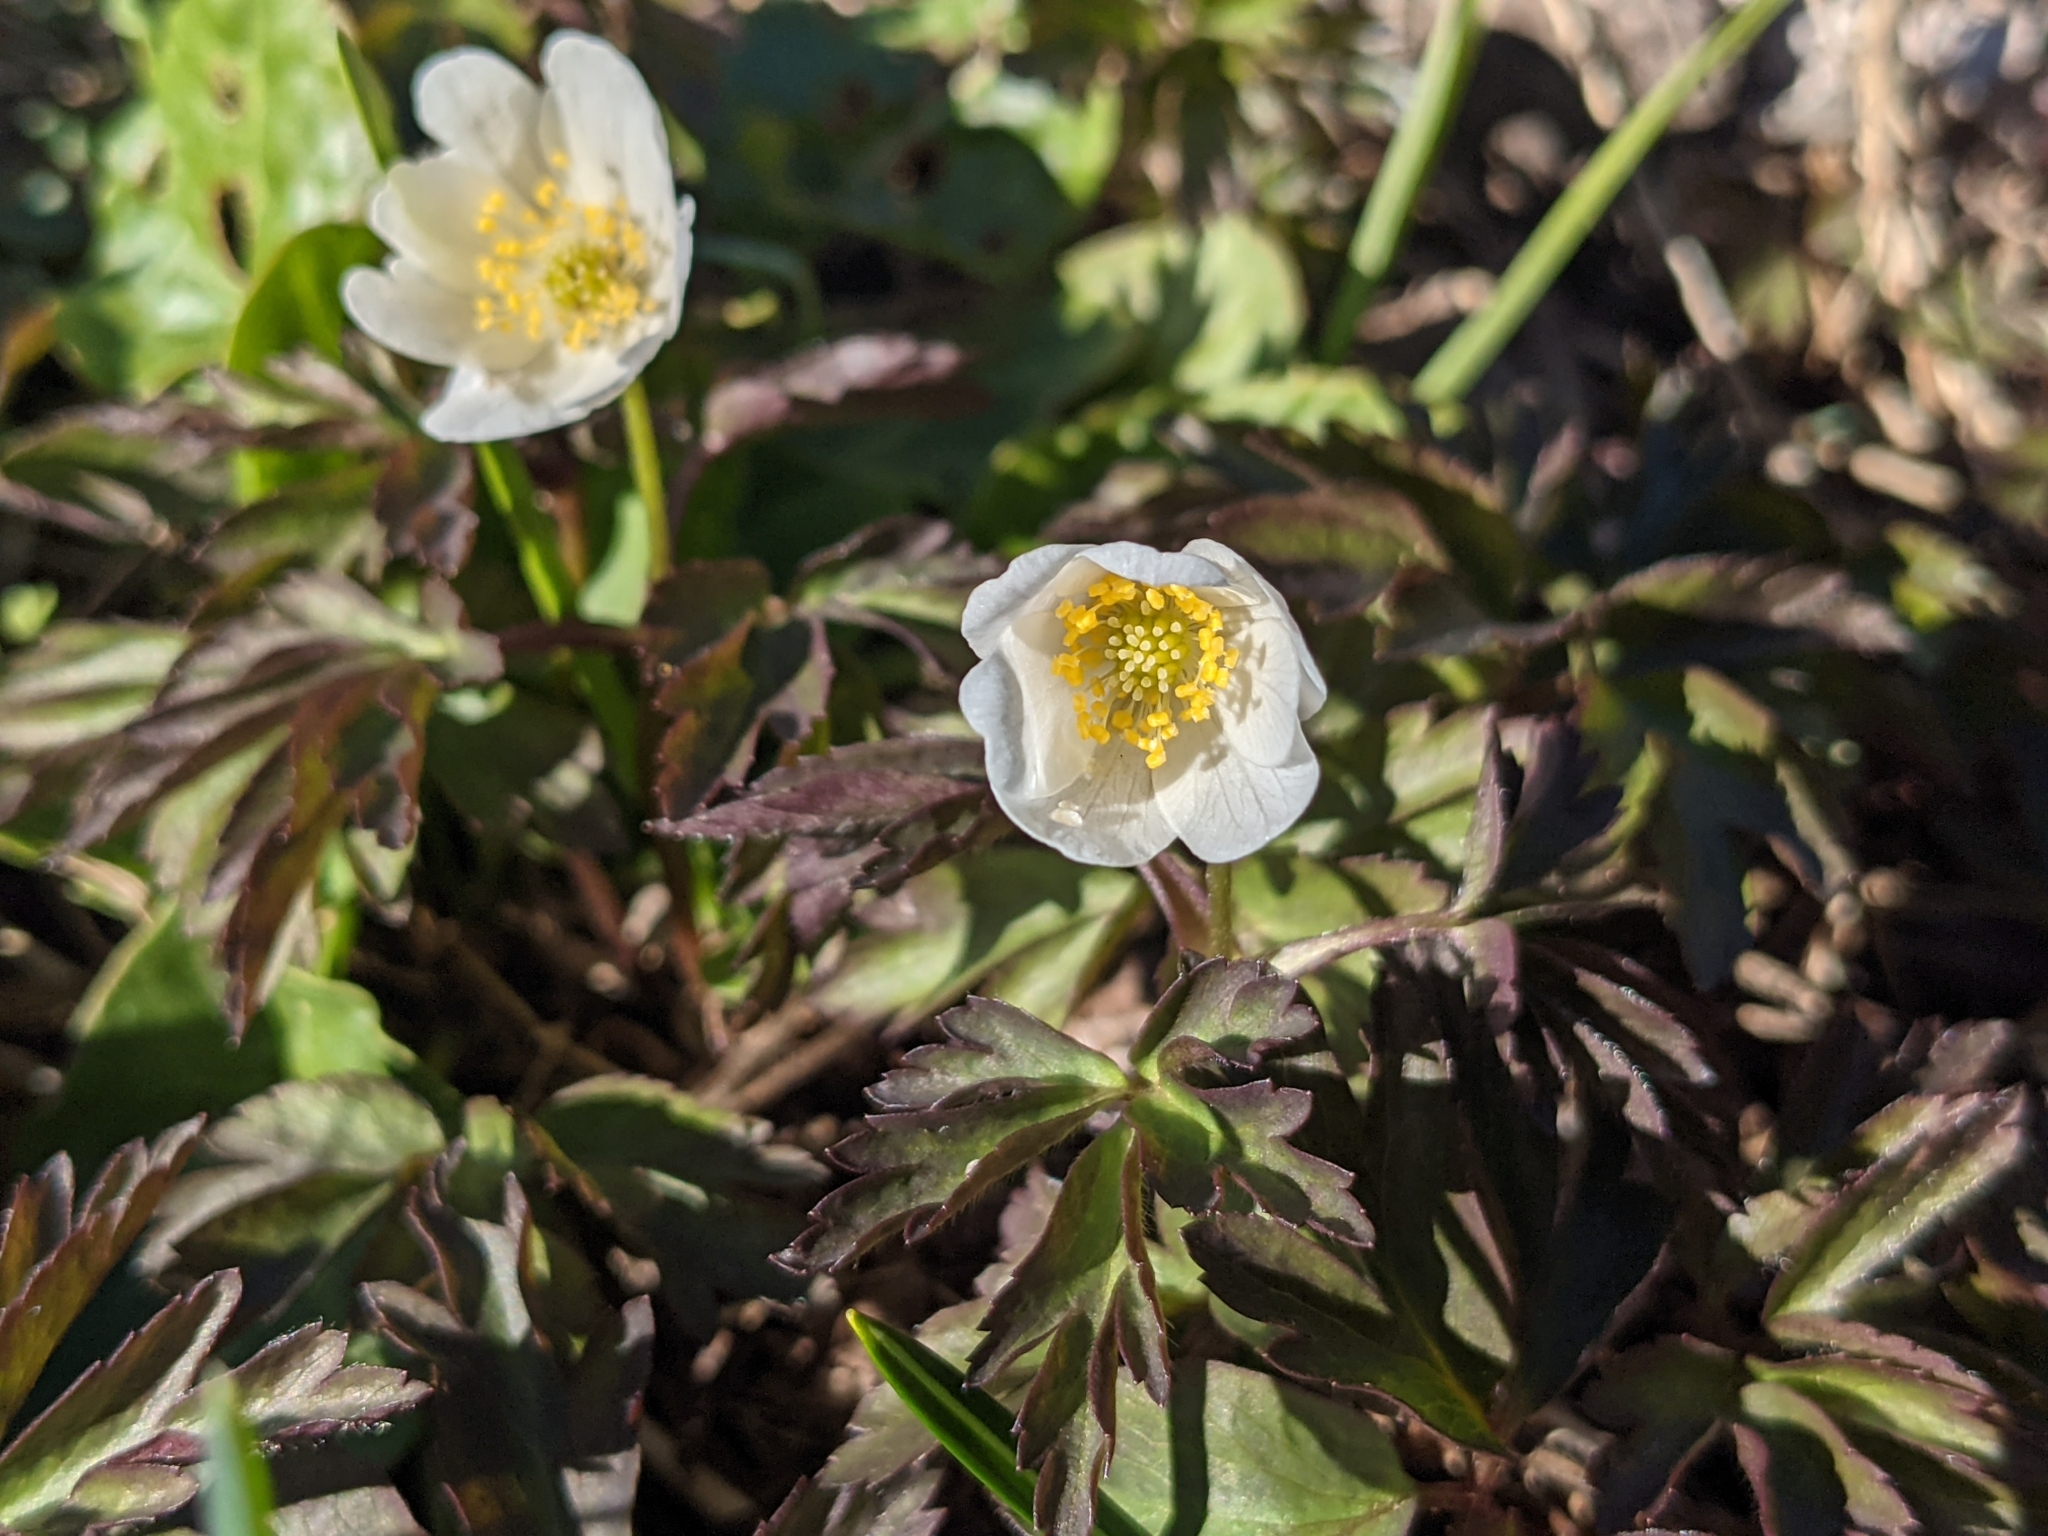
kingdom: Plantae
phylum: Tracheophyta
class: Magnoliopsida
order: Ranunculales
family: Ranunculaceae
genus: Anemone
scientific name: Anemone nemorosa
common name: Wood anemone
